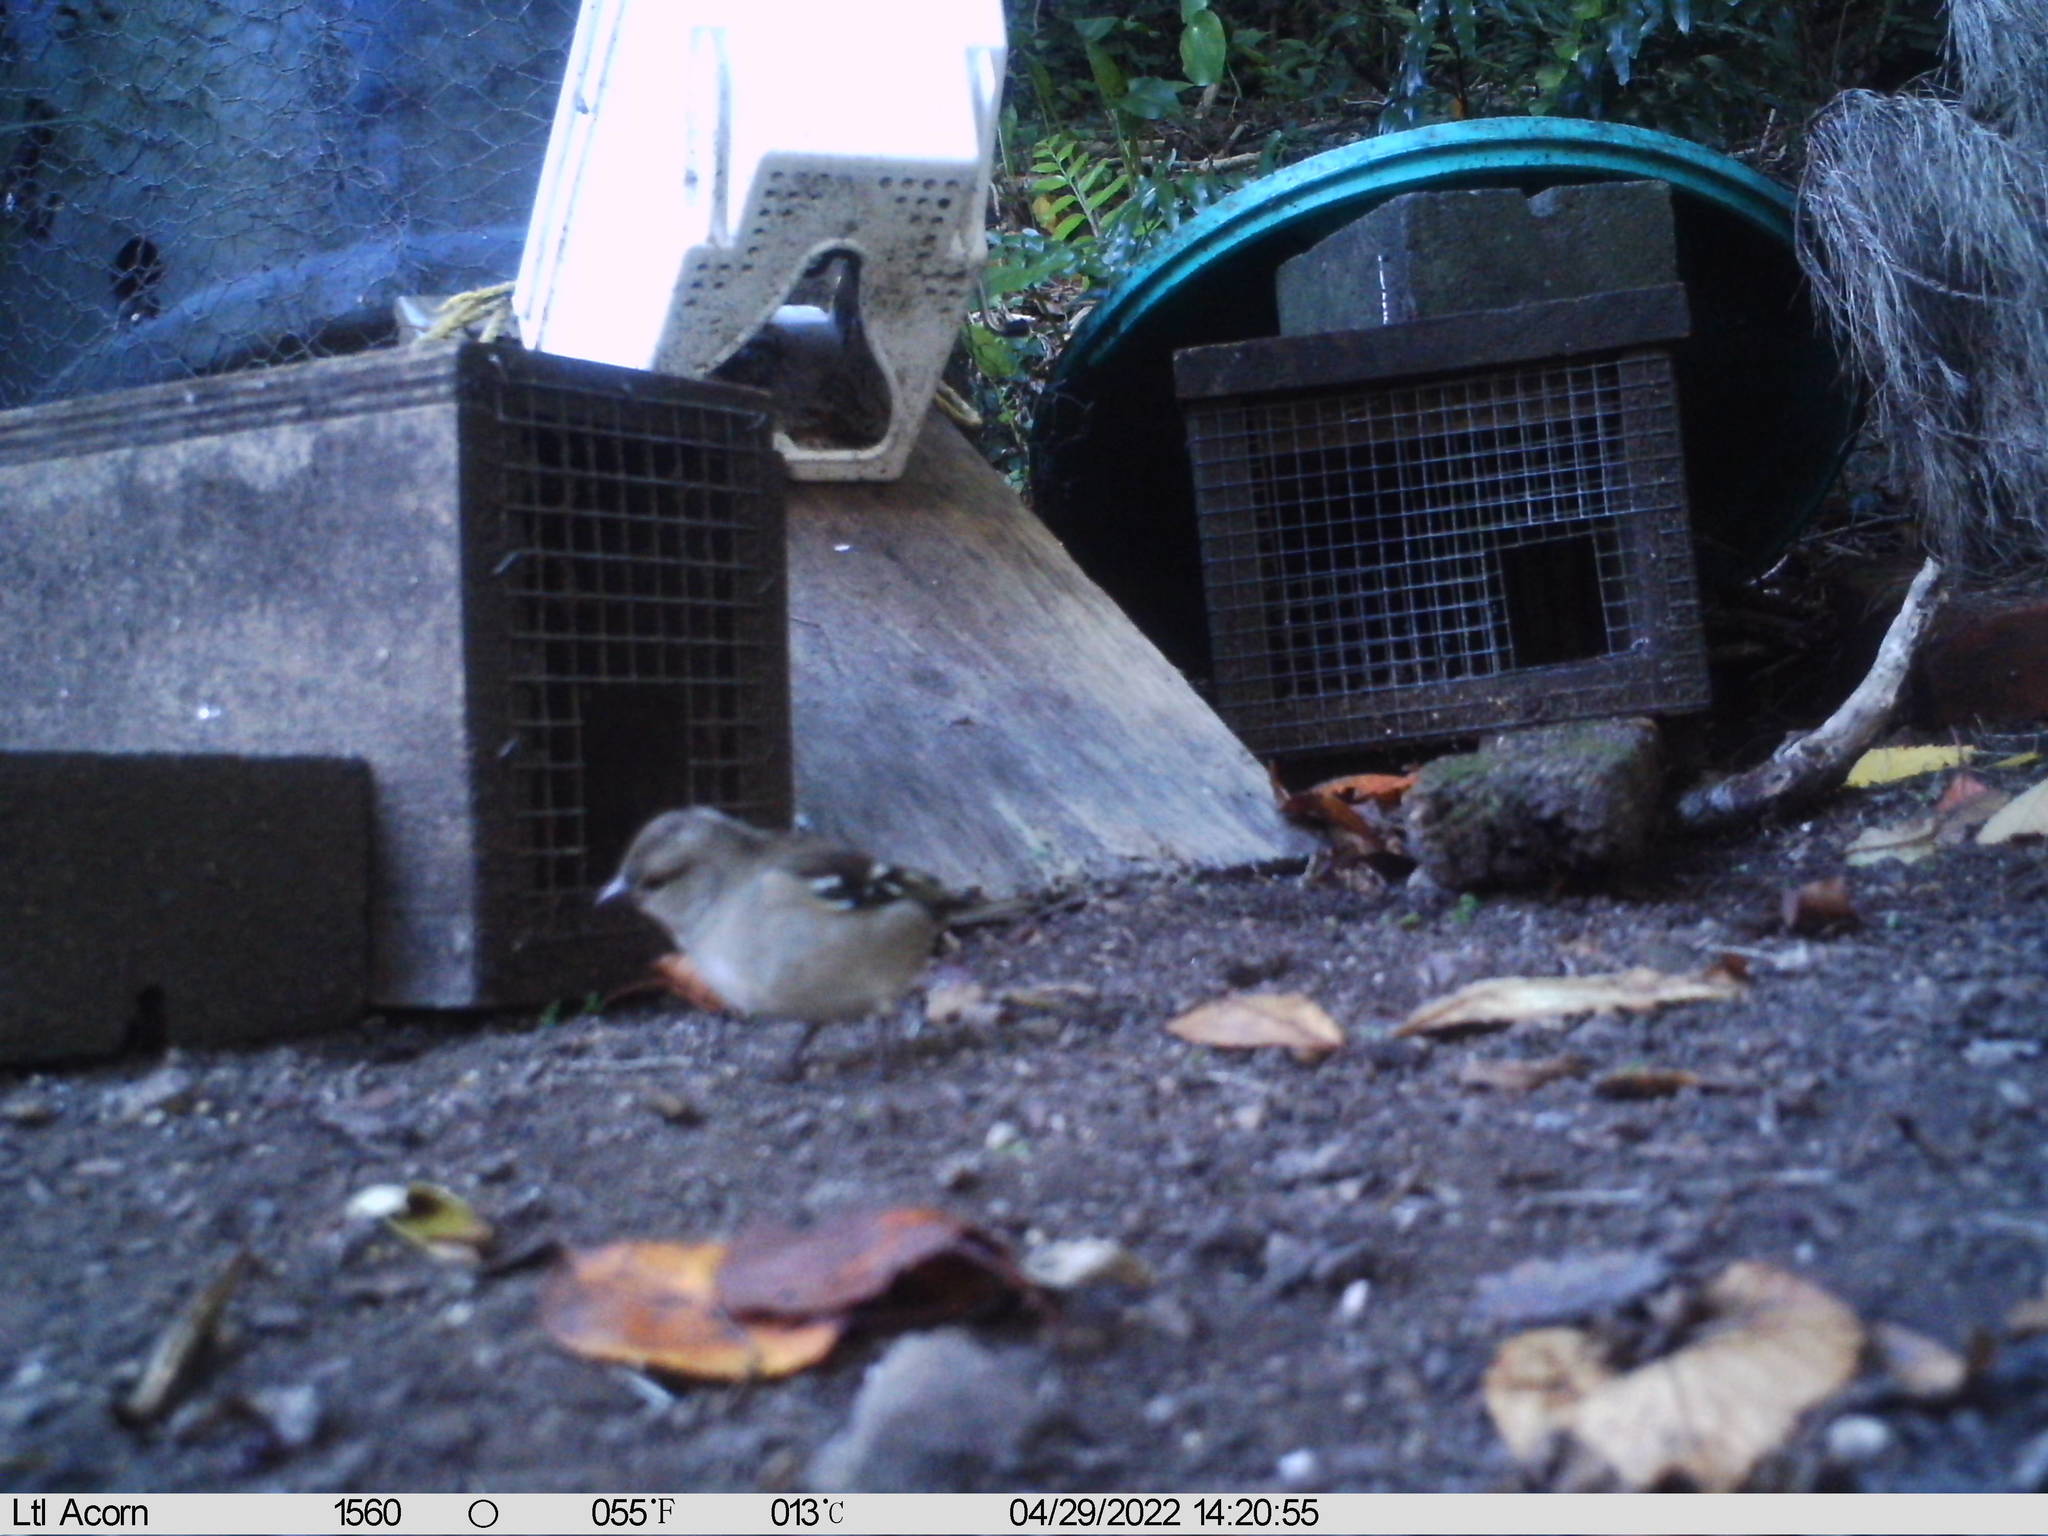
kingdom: Animalia
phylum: Chordata
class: Aves
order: Passeriformes
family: Fringillidae
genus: Fringilla
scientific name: Fringilla coelebs
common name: Common chaffinch
